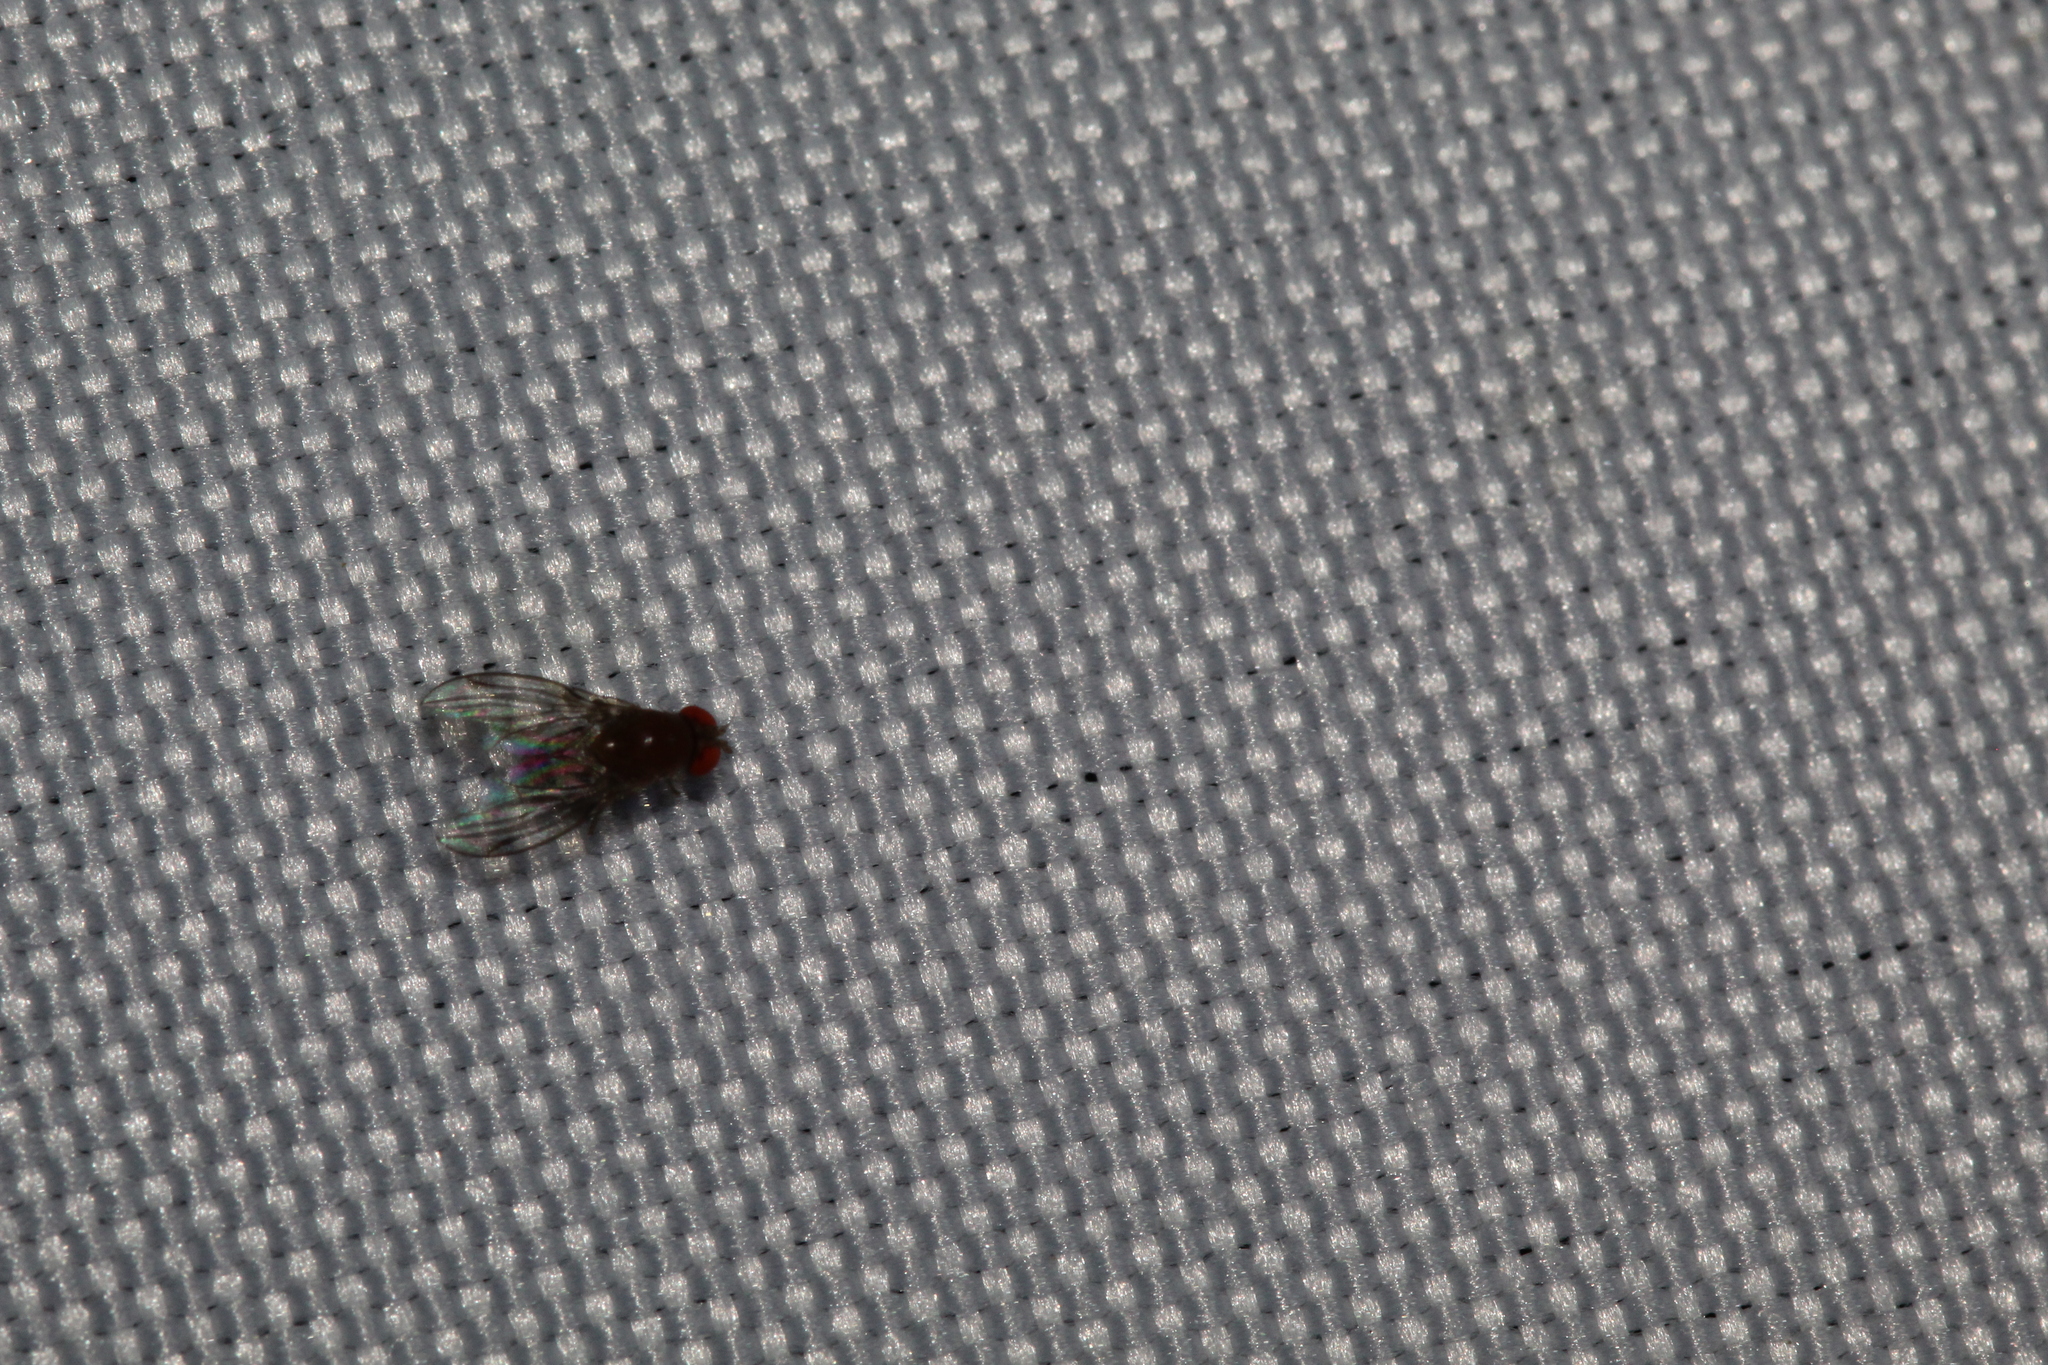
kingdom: Animalia
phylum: Arthropoda
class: Insecta
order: Diptera
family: Drosophilidae
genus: Leucophenga
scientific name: Leucophenga varia
